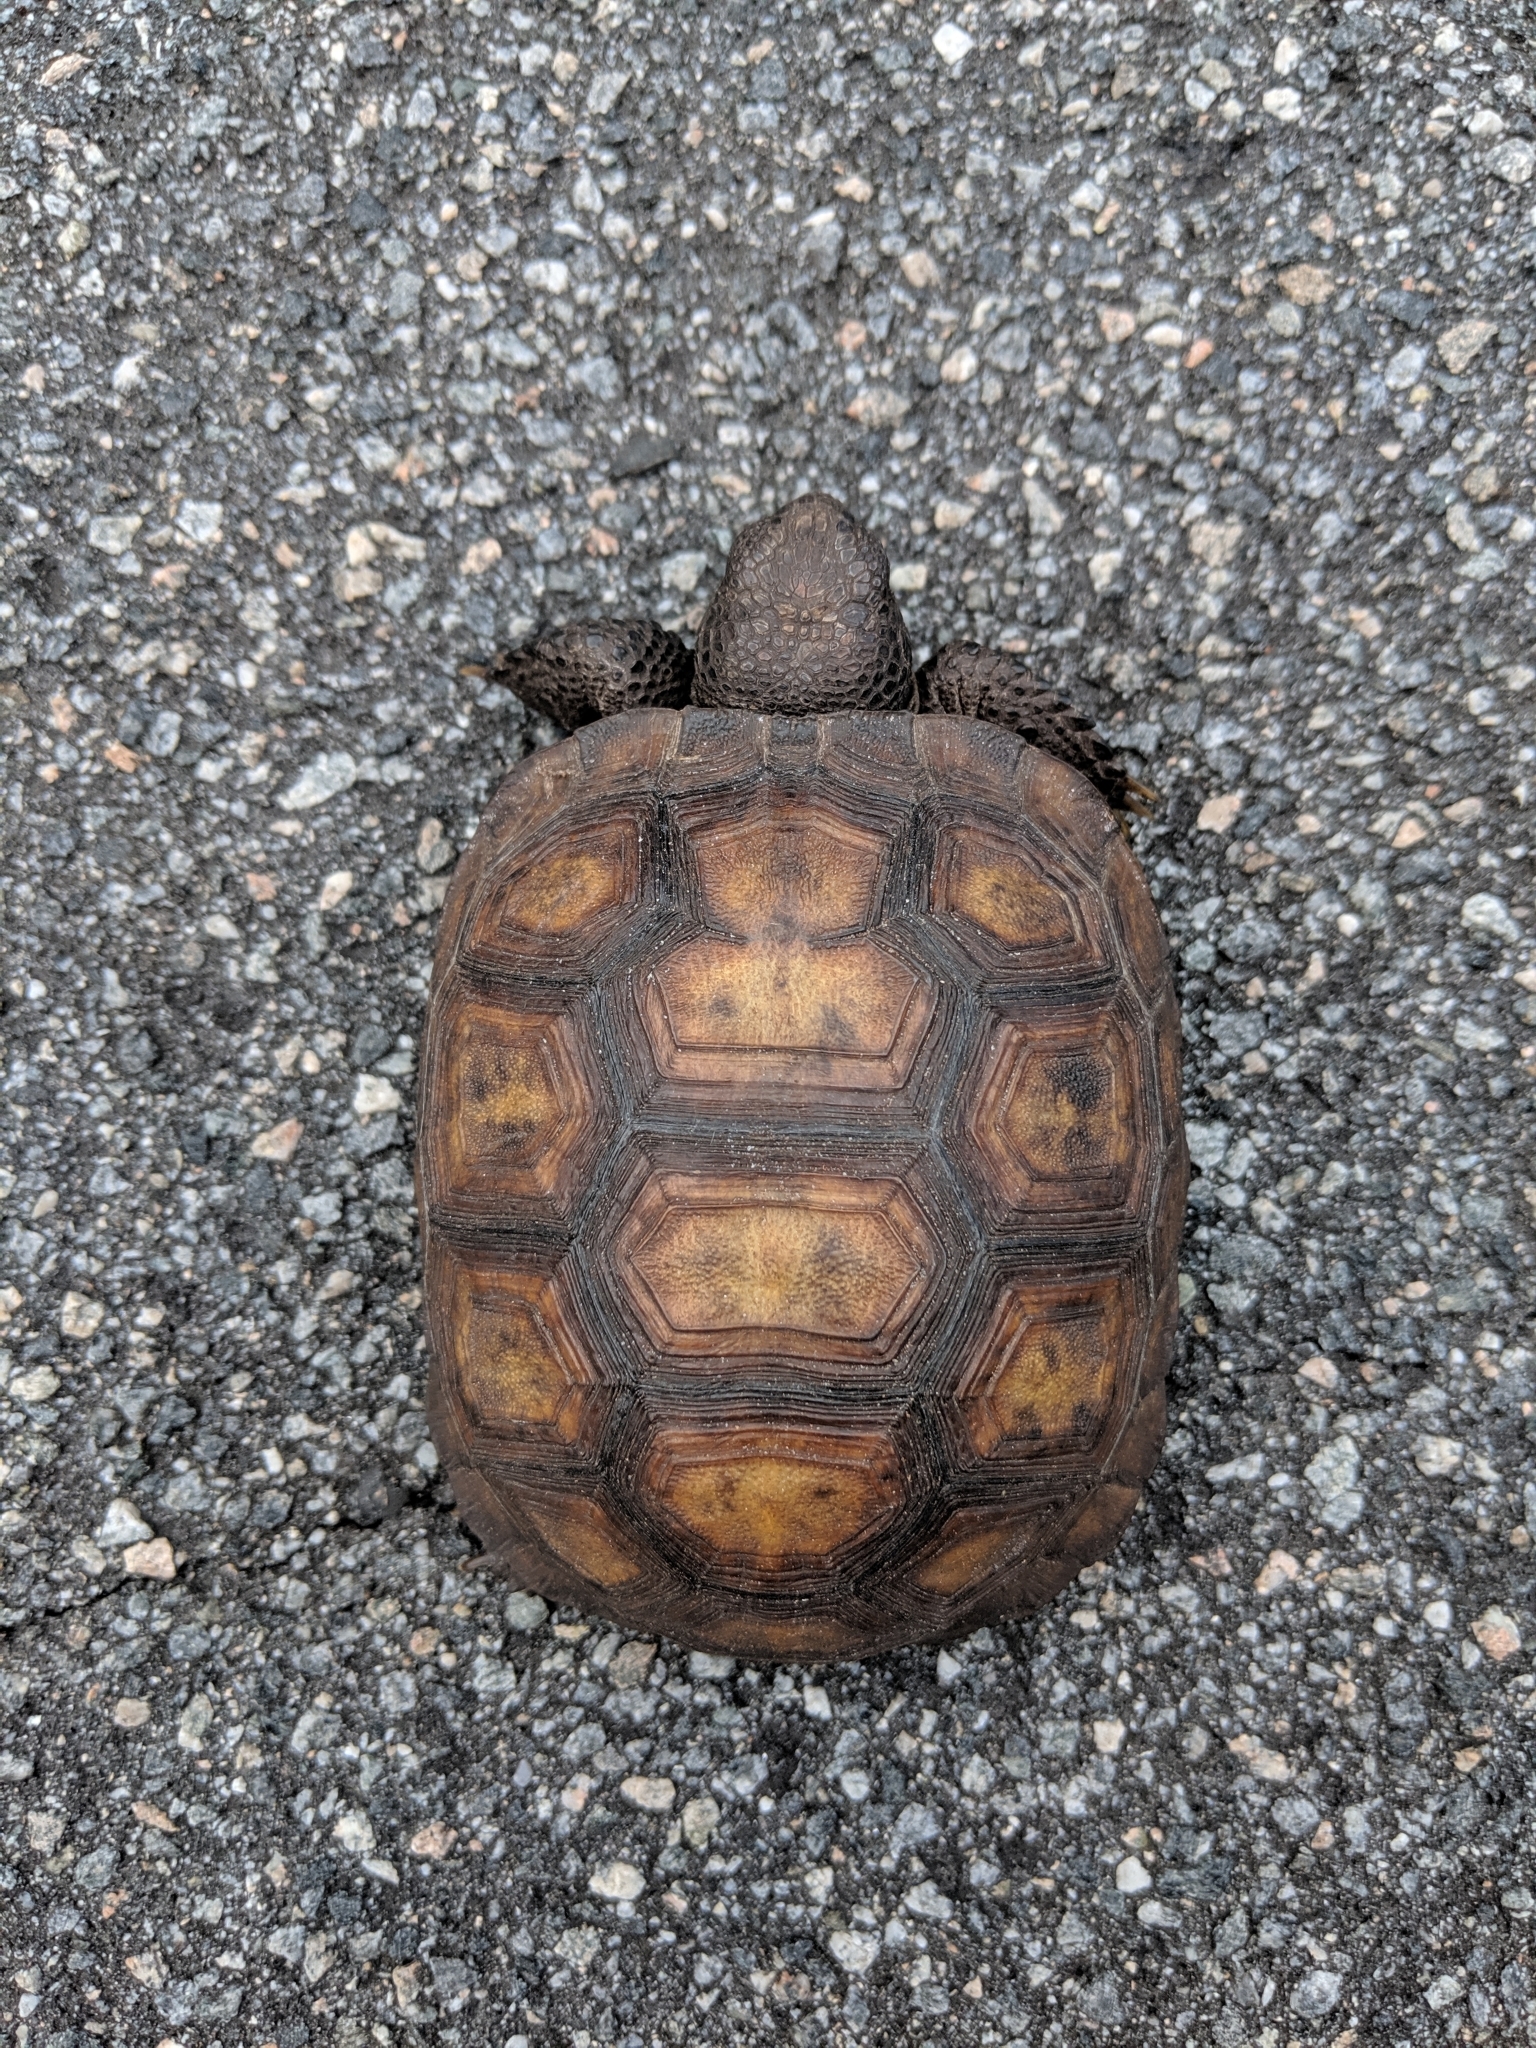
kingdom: Animalia
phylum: Chordata
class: Testudines
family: Testudinidae
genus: Gopherus
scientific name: Gopherus polyphemus
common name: Florida gopher tortoise
